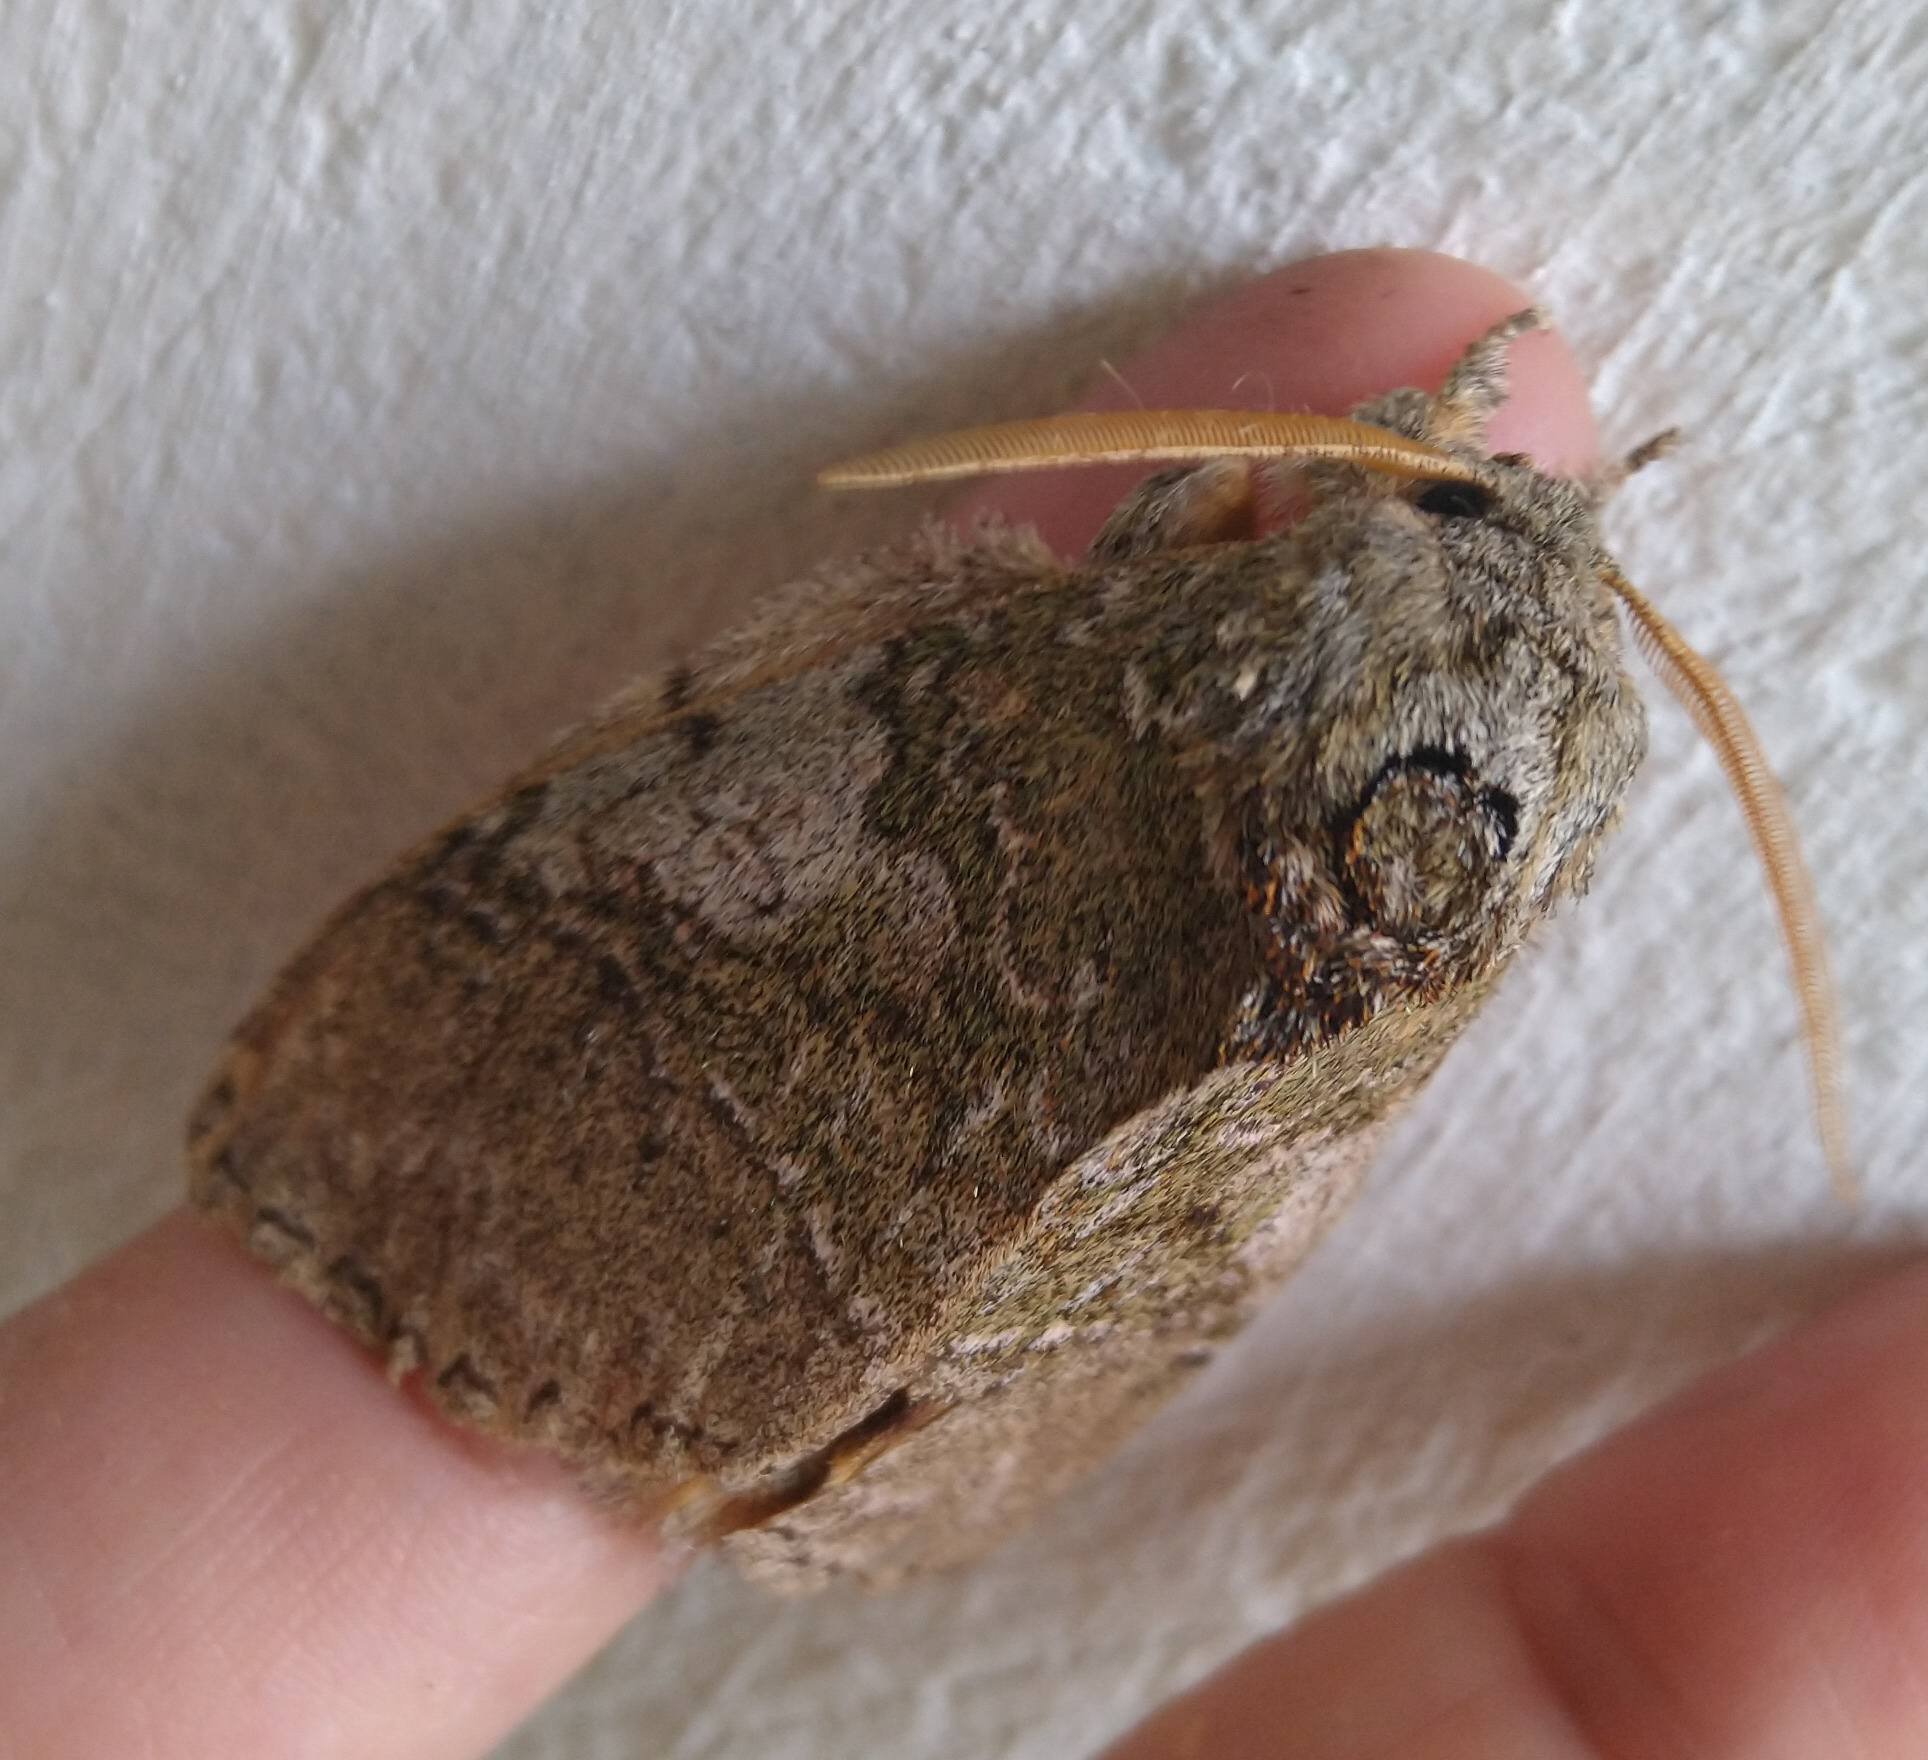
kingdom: Animalia
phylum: Arthropoda
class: Insecta
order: Lepidoptera
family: Notodontidae
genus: Anurocampa
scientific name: Anurocampa mingens
